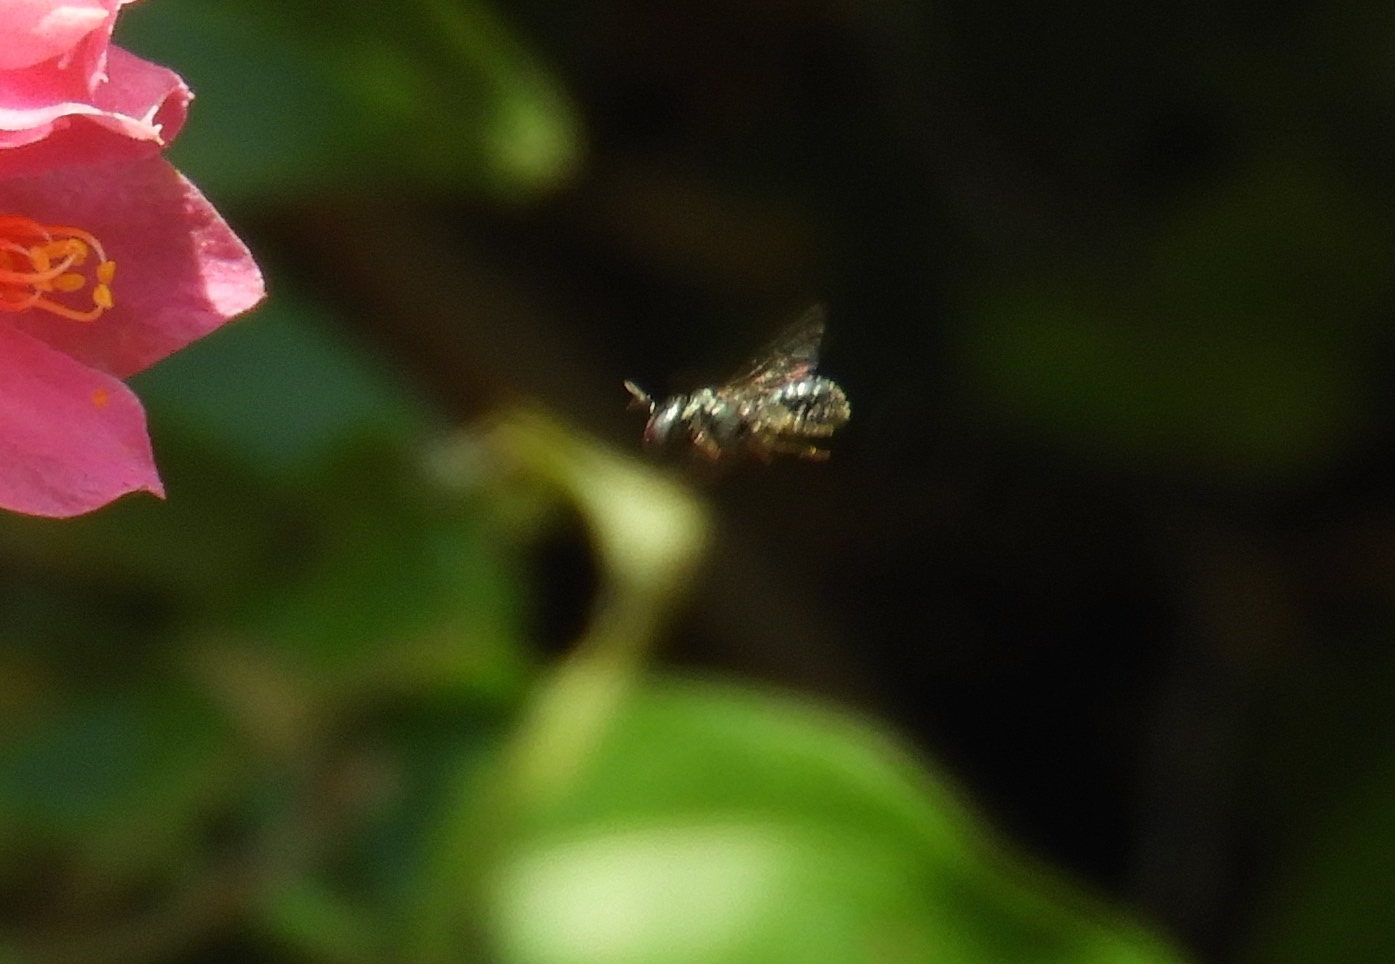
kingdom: Animalia
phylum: Arthropoda
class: Insecta
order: Hymenoptera
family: Apidae
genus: Ceratina
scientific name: Ceratina
